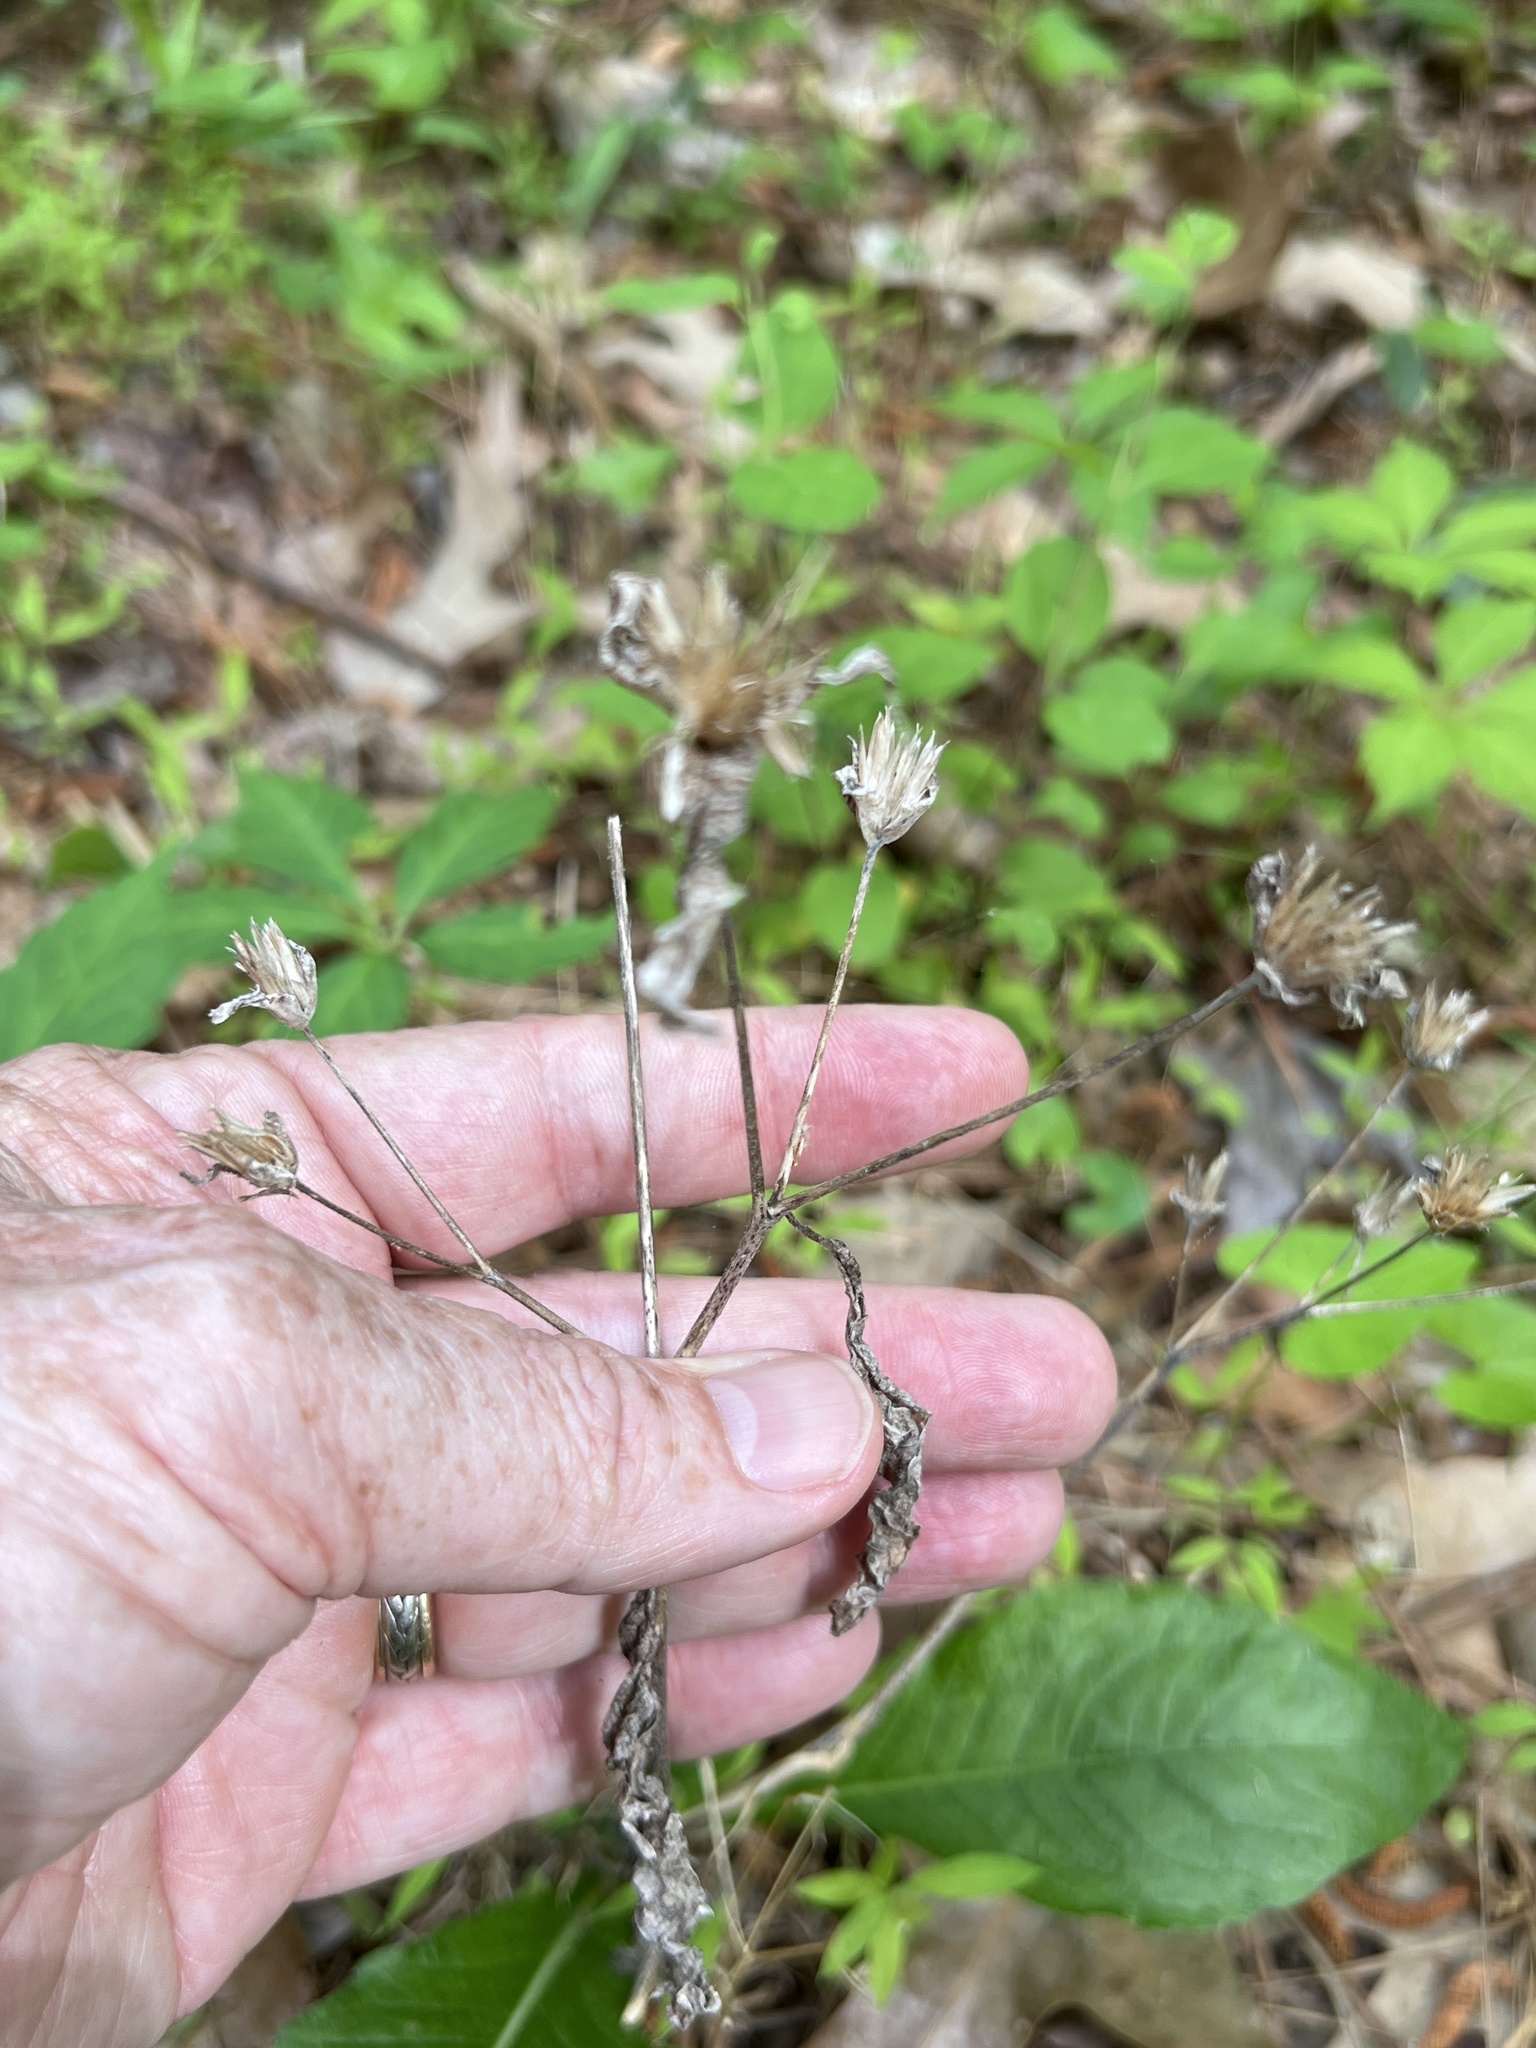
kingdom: Plantae
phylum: Tracheophyta
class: Magnoliopsida
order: Asterales
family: Asteraceae
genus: Elephantopus
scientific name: Elephantopus tomentosus
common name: Tobacco-weed
